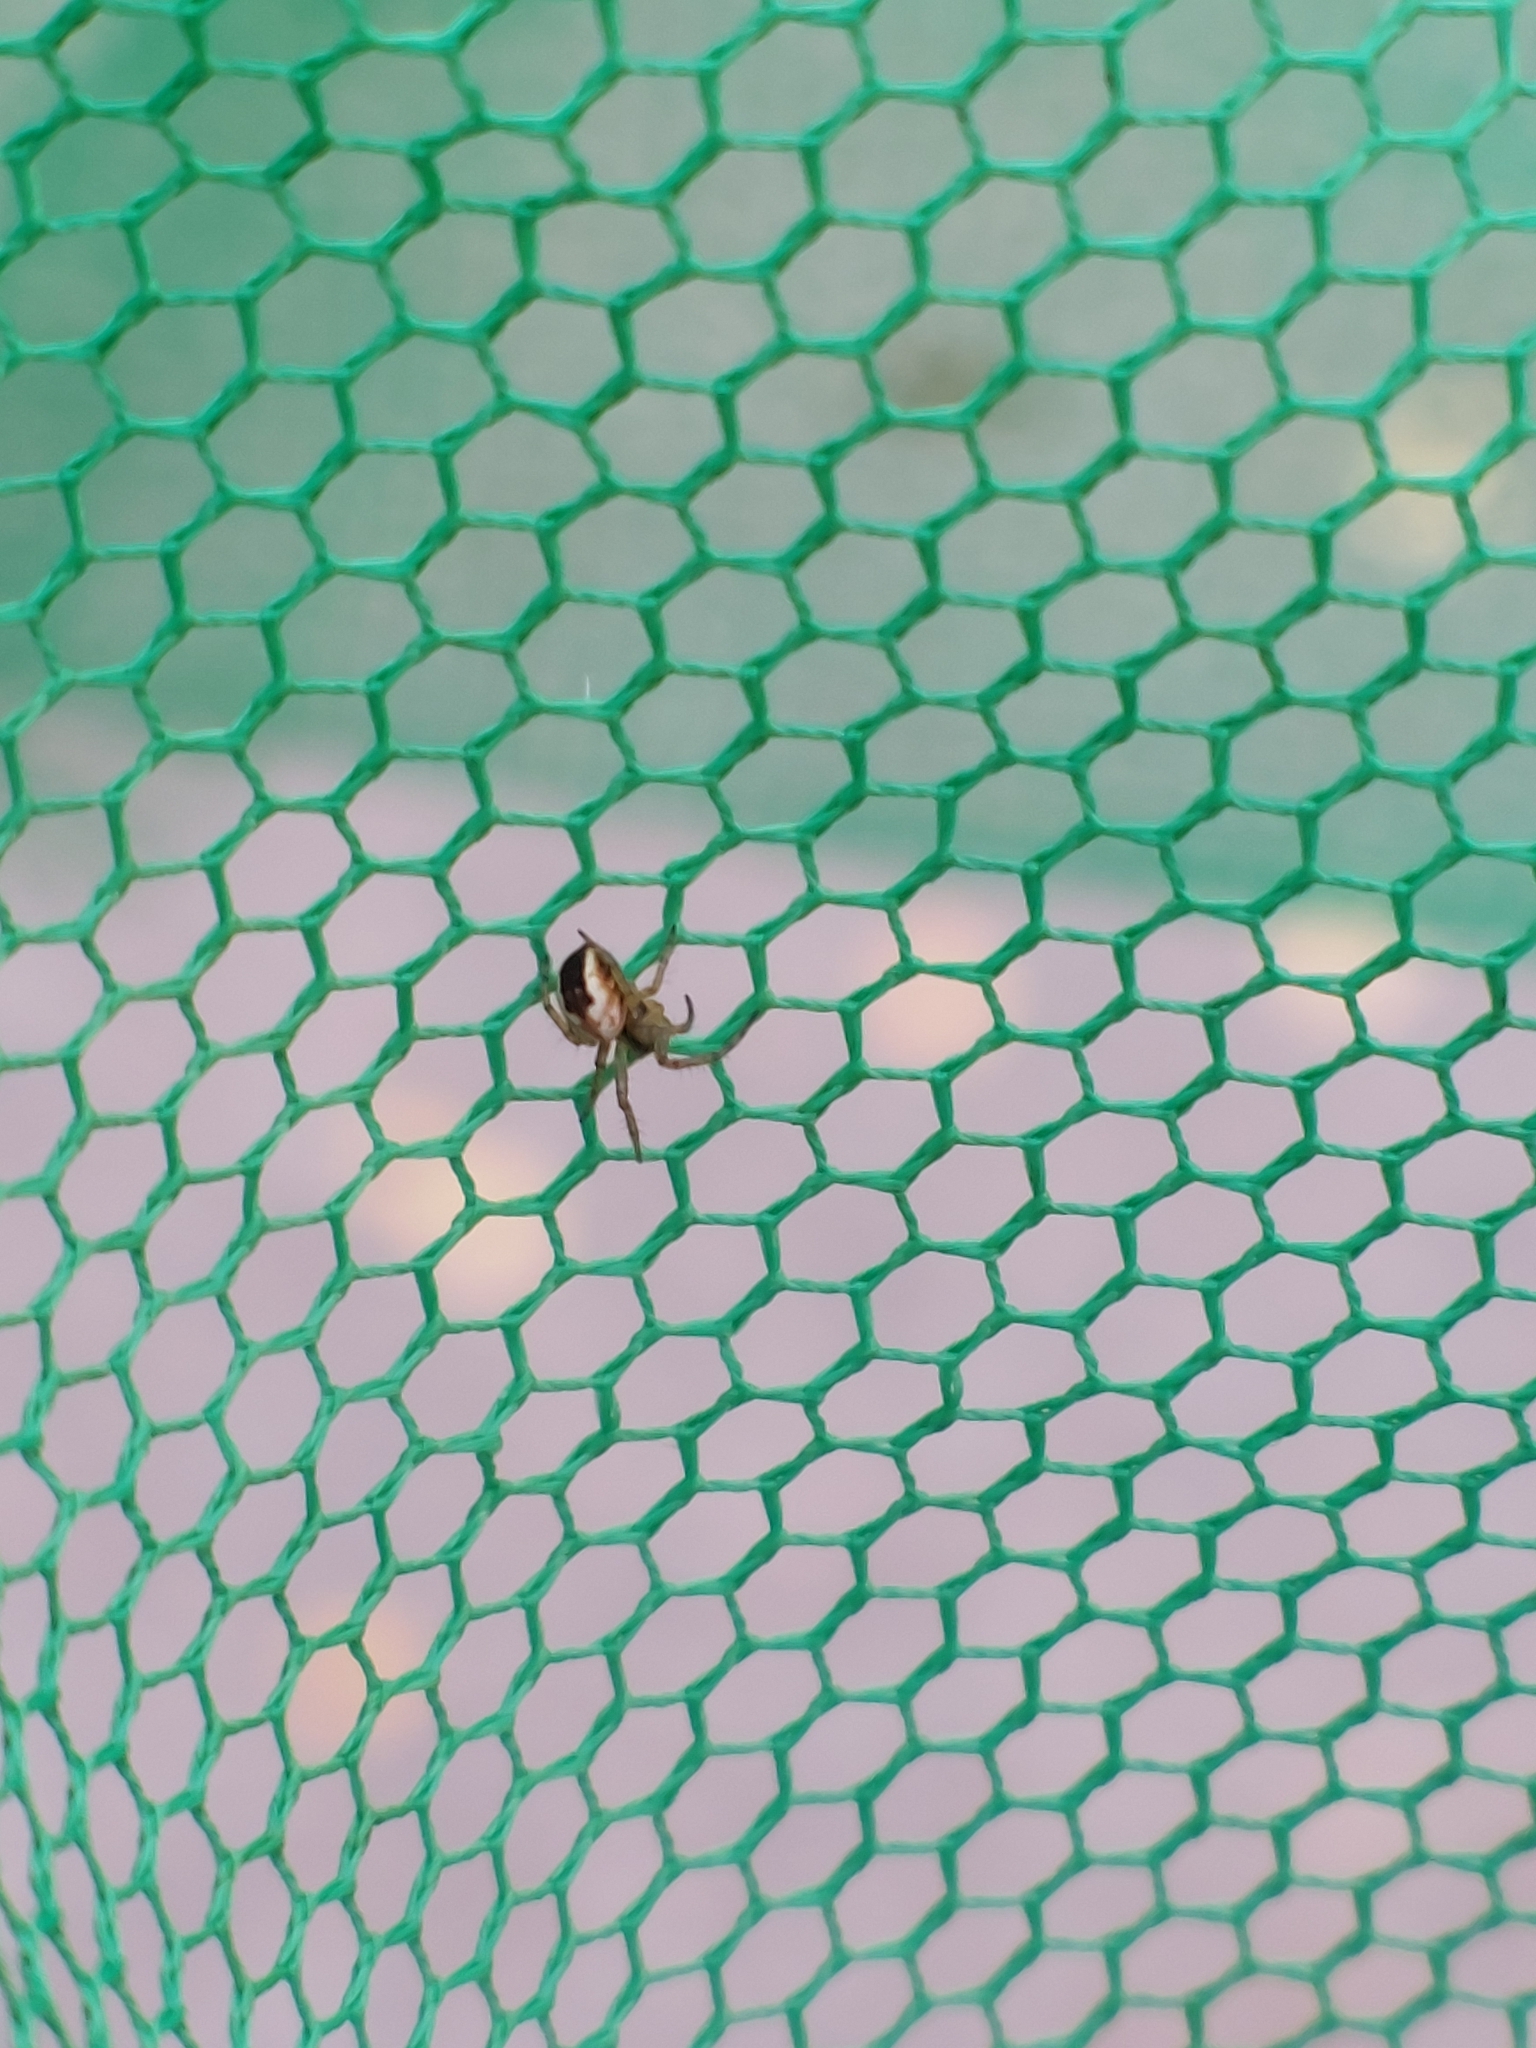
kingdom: Animalia
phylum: Arthropoda
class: Arachnida
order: Araneae
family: Araneidae
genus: Mangora
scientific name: Mangora acalypha
